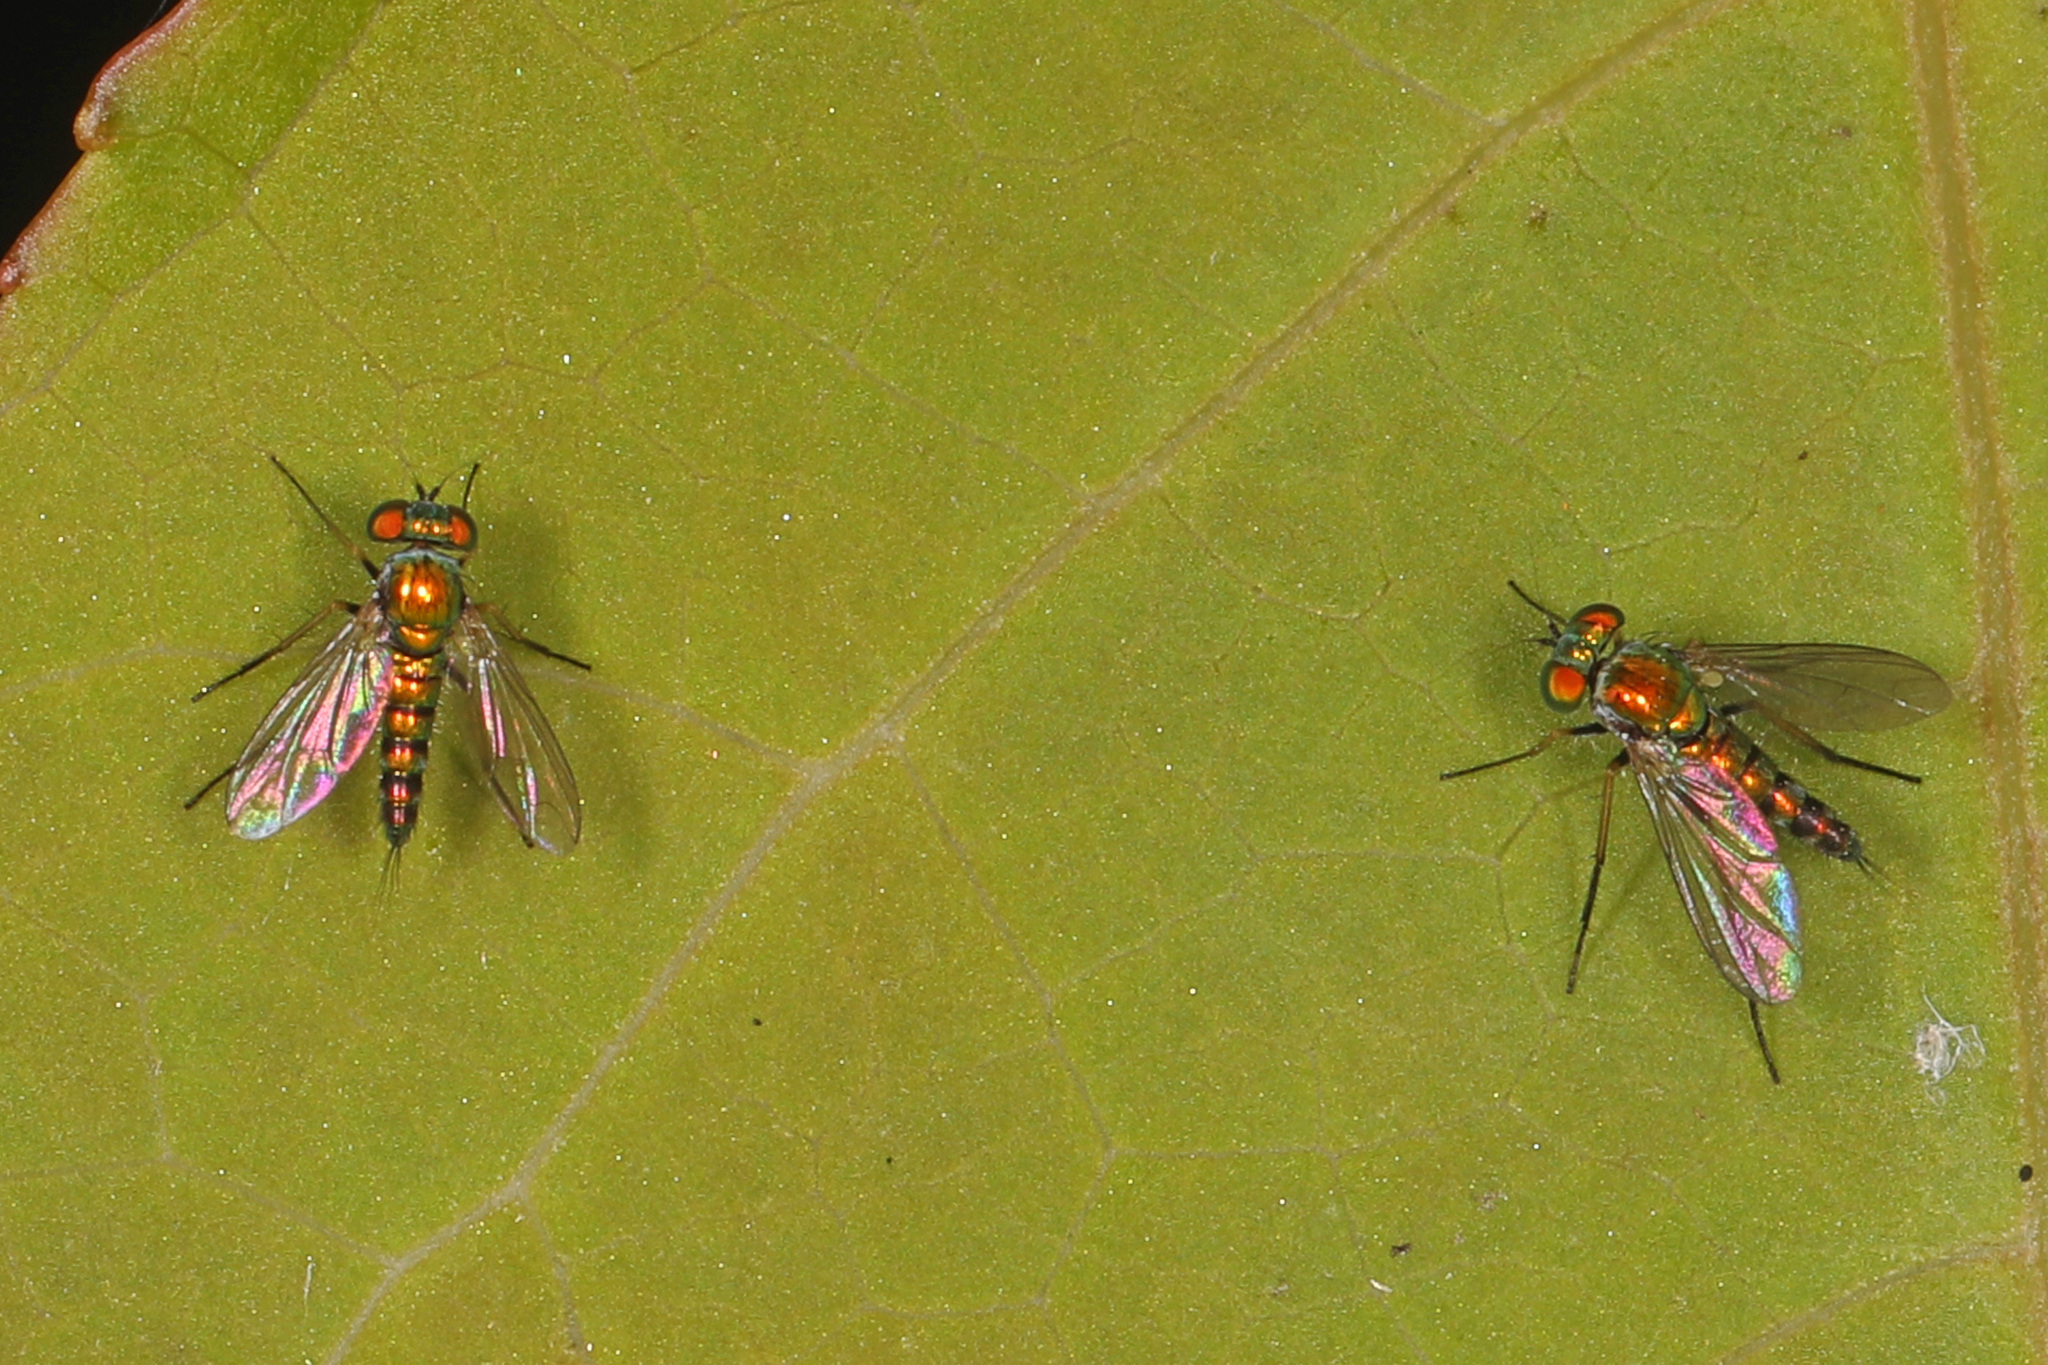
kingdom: Animalia
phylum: Arthropoda
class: Insecta
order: Diptera
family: Dolichopodidae
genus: Condylostylus
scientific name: Condylostylus caudatus
